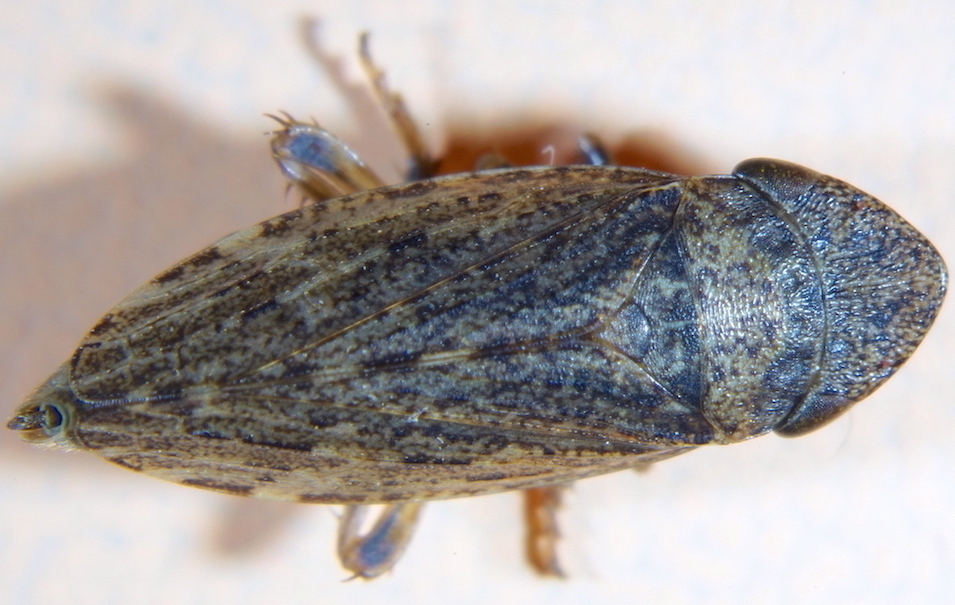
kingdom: Animalia
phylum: Arthropoda
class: Insecta
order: Hemiptera
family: Cicadellidae
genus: Aphrodes
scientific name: Aphrodes makarovi
